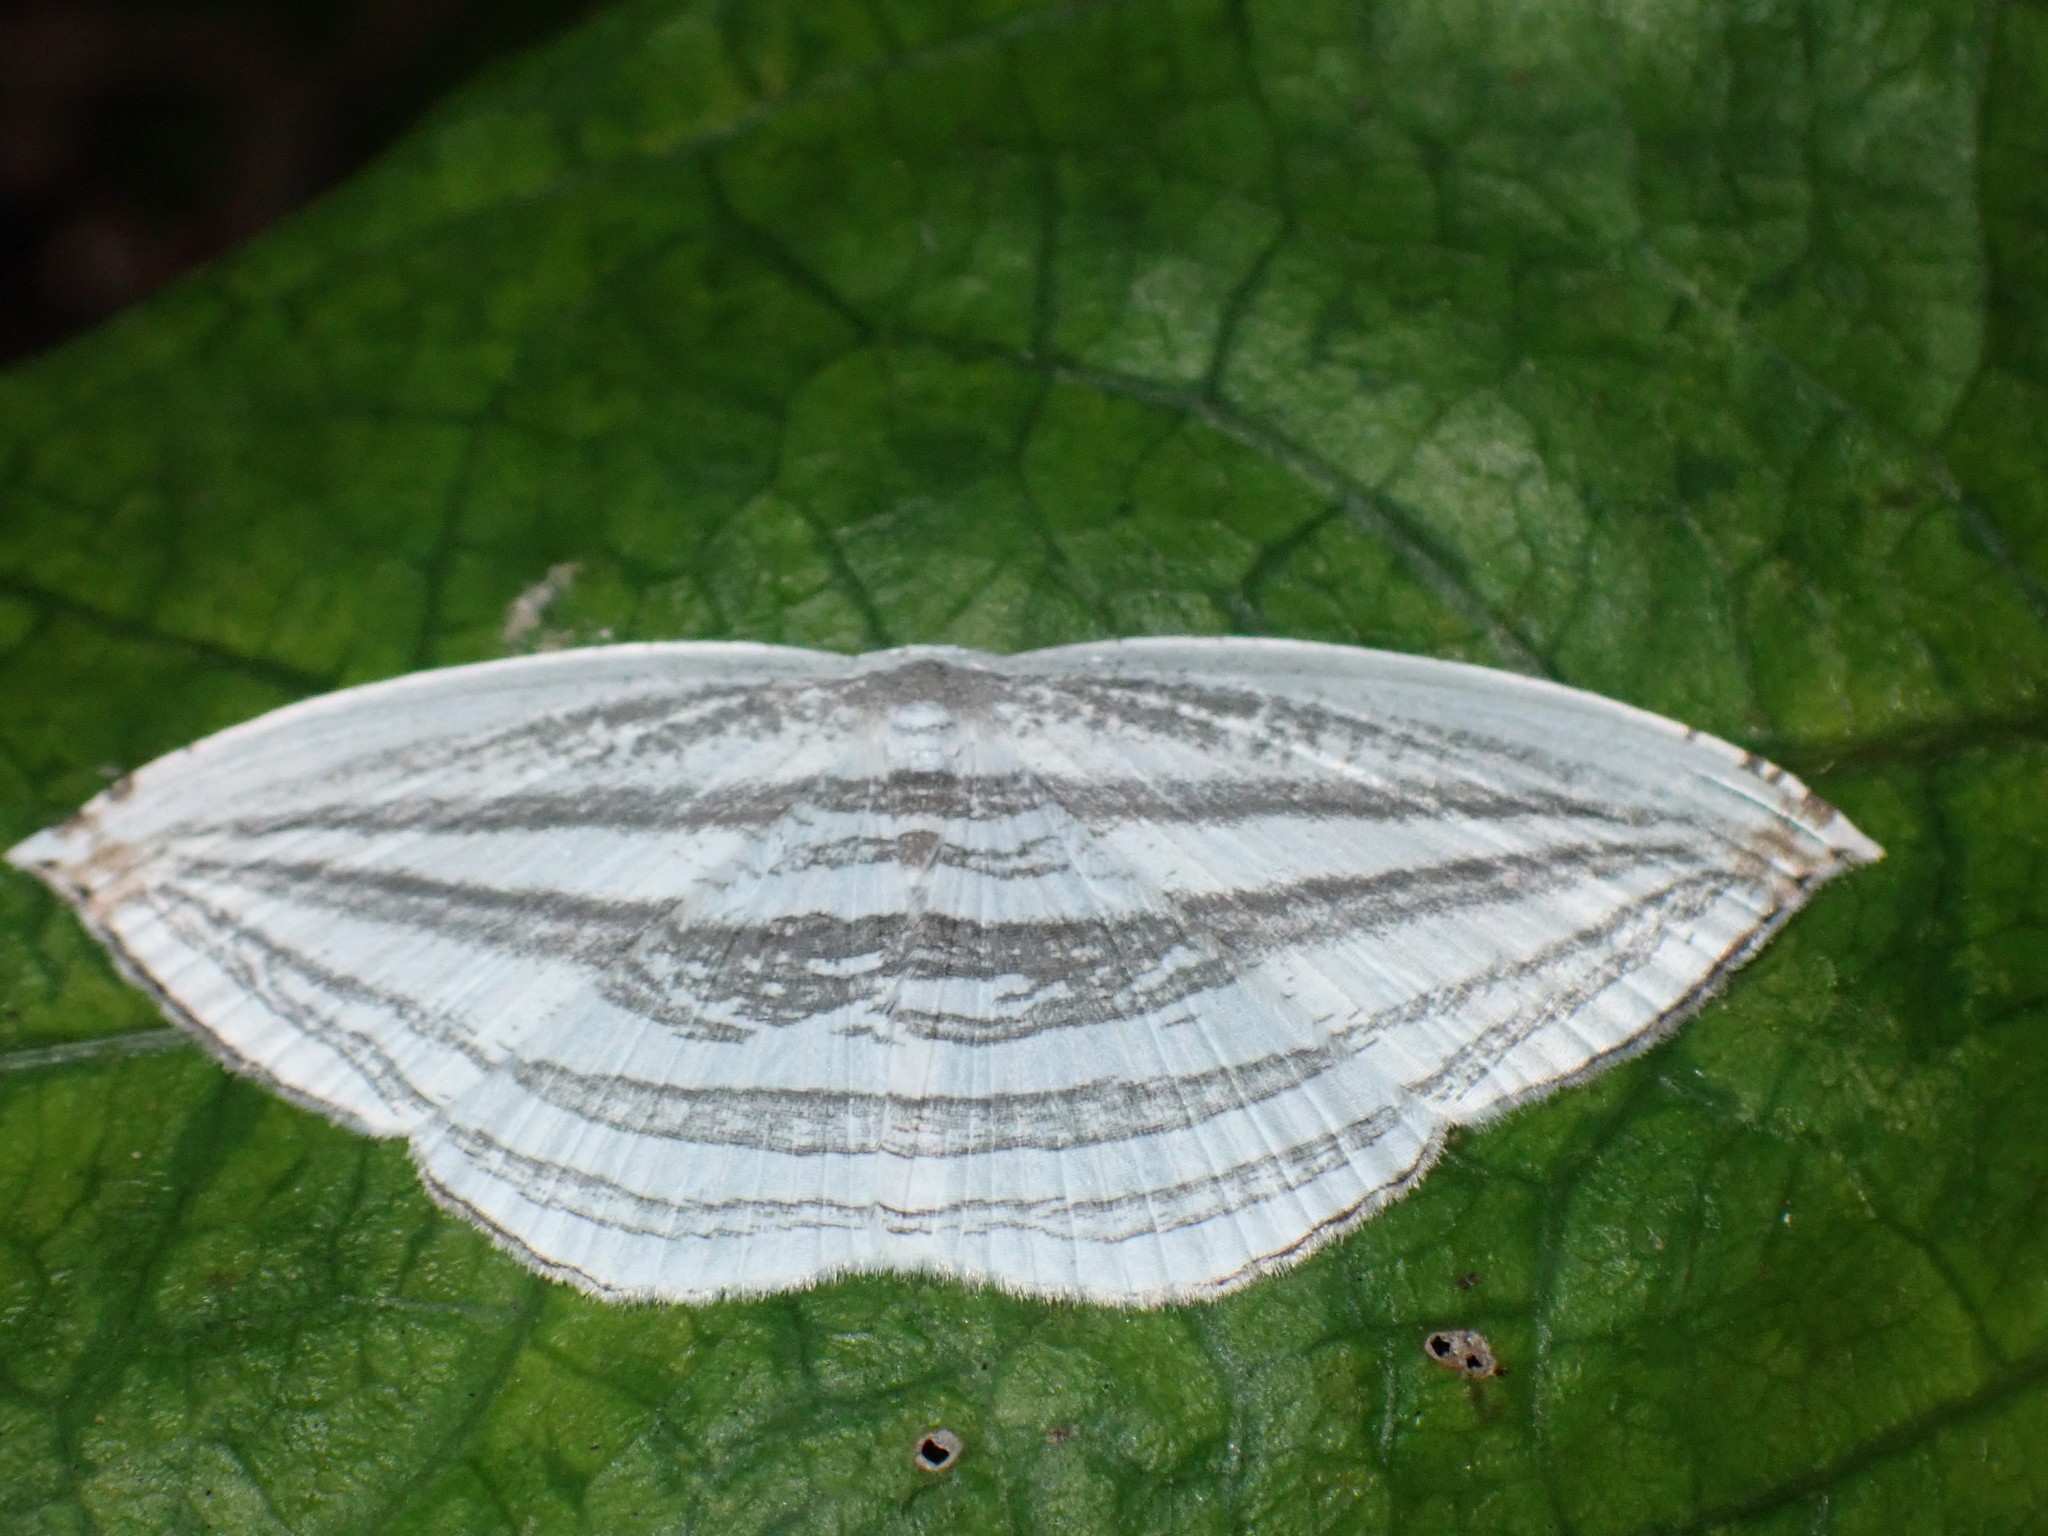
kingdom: Animalia
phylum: Arthropoda
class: Insecta
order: Lepidoptera
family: Uraniidae
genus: Acropteris
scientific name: Acropteris iphiata
